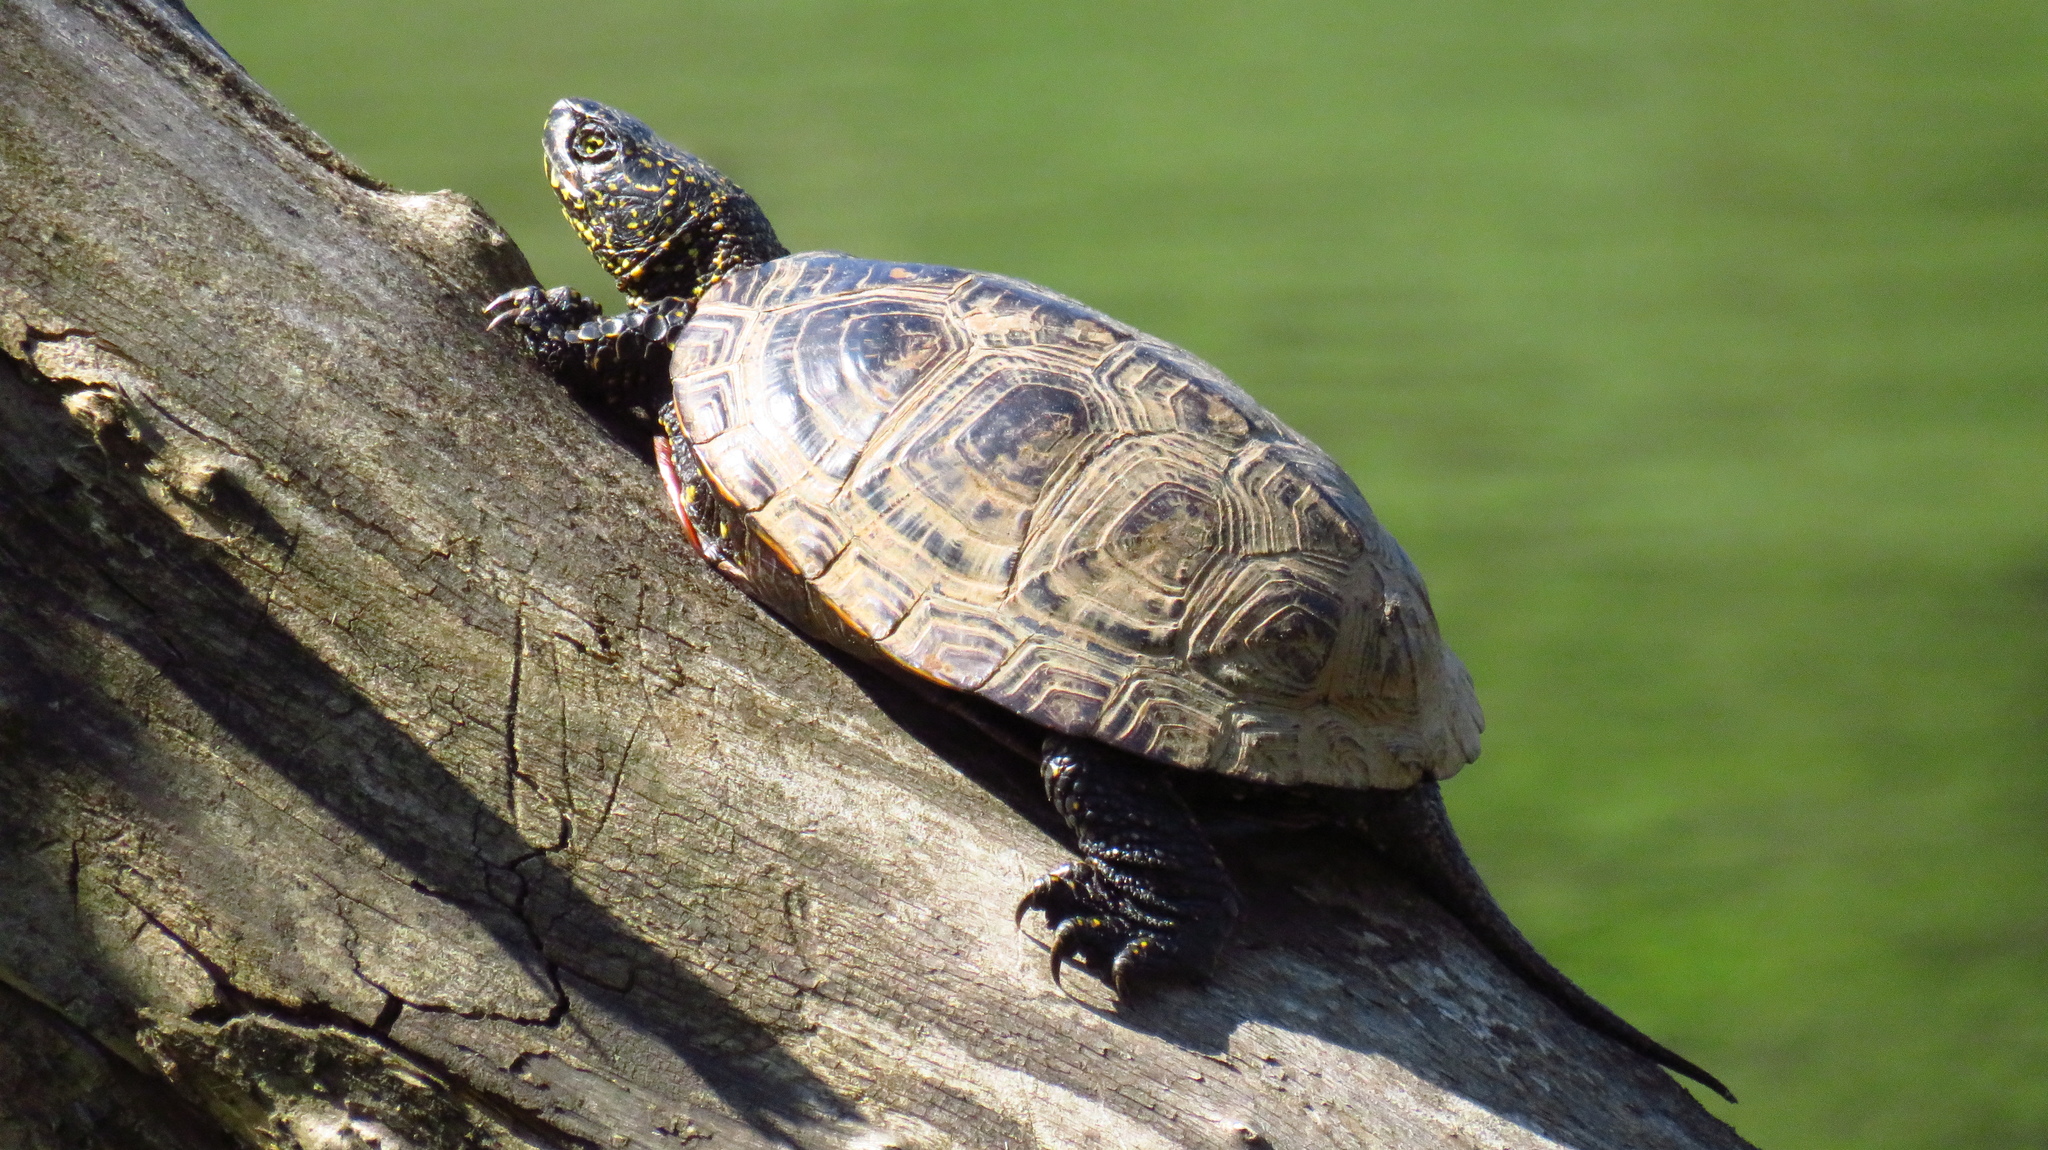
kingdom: Animalia
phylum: Chordata
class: Testudines
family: Emydidae
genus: Emys
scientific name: Emys orbicularis
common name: European pond turtle
